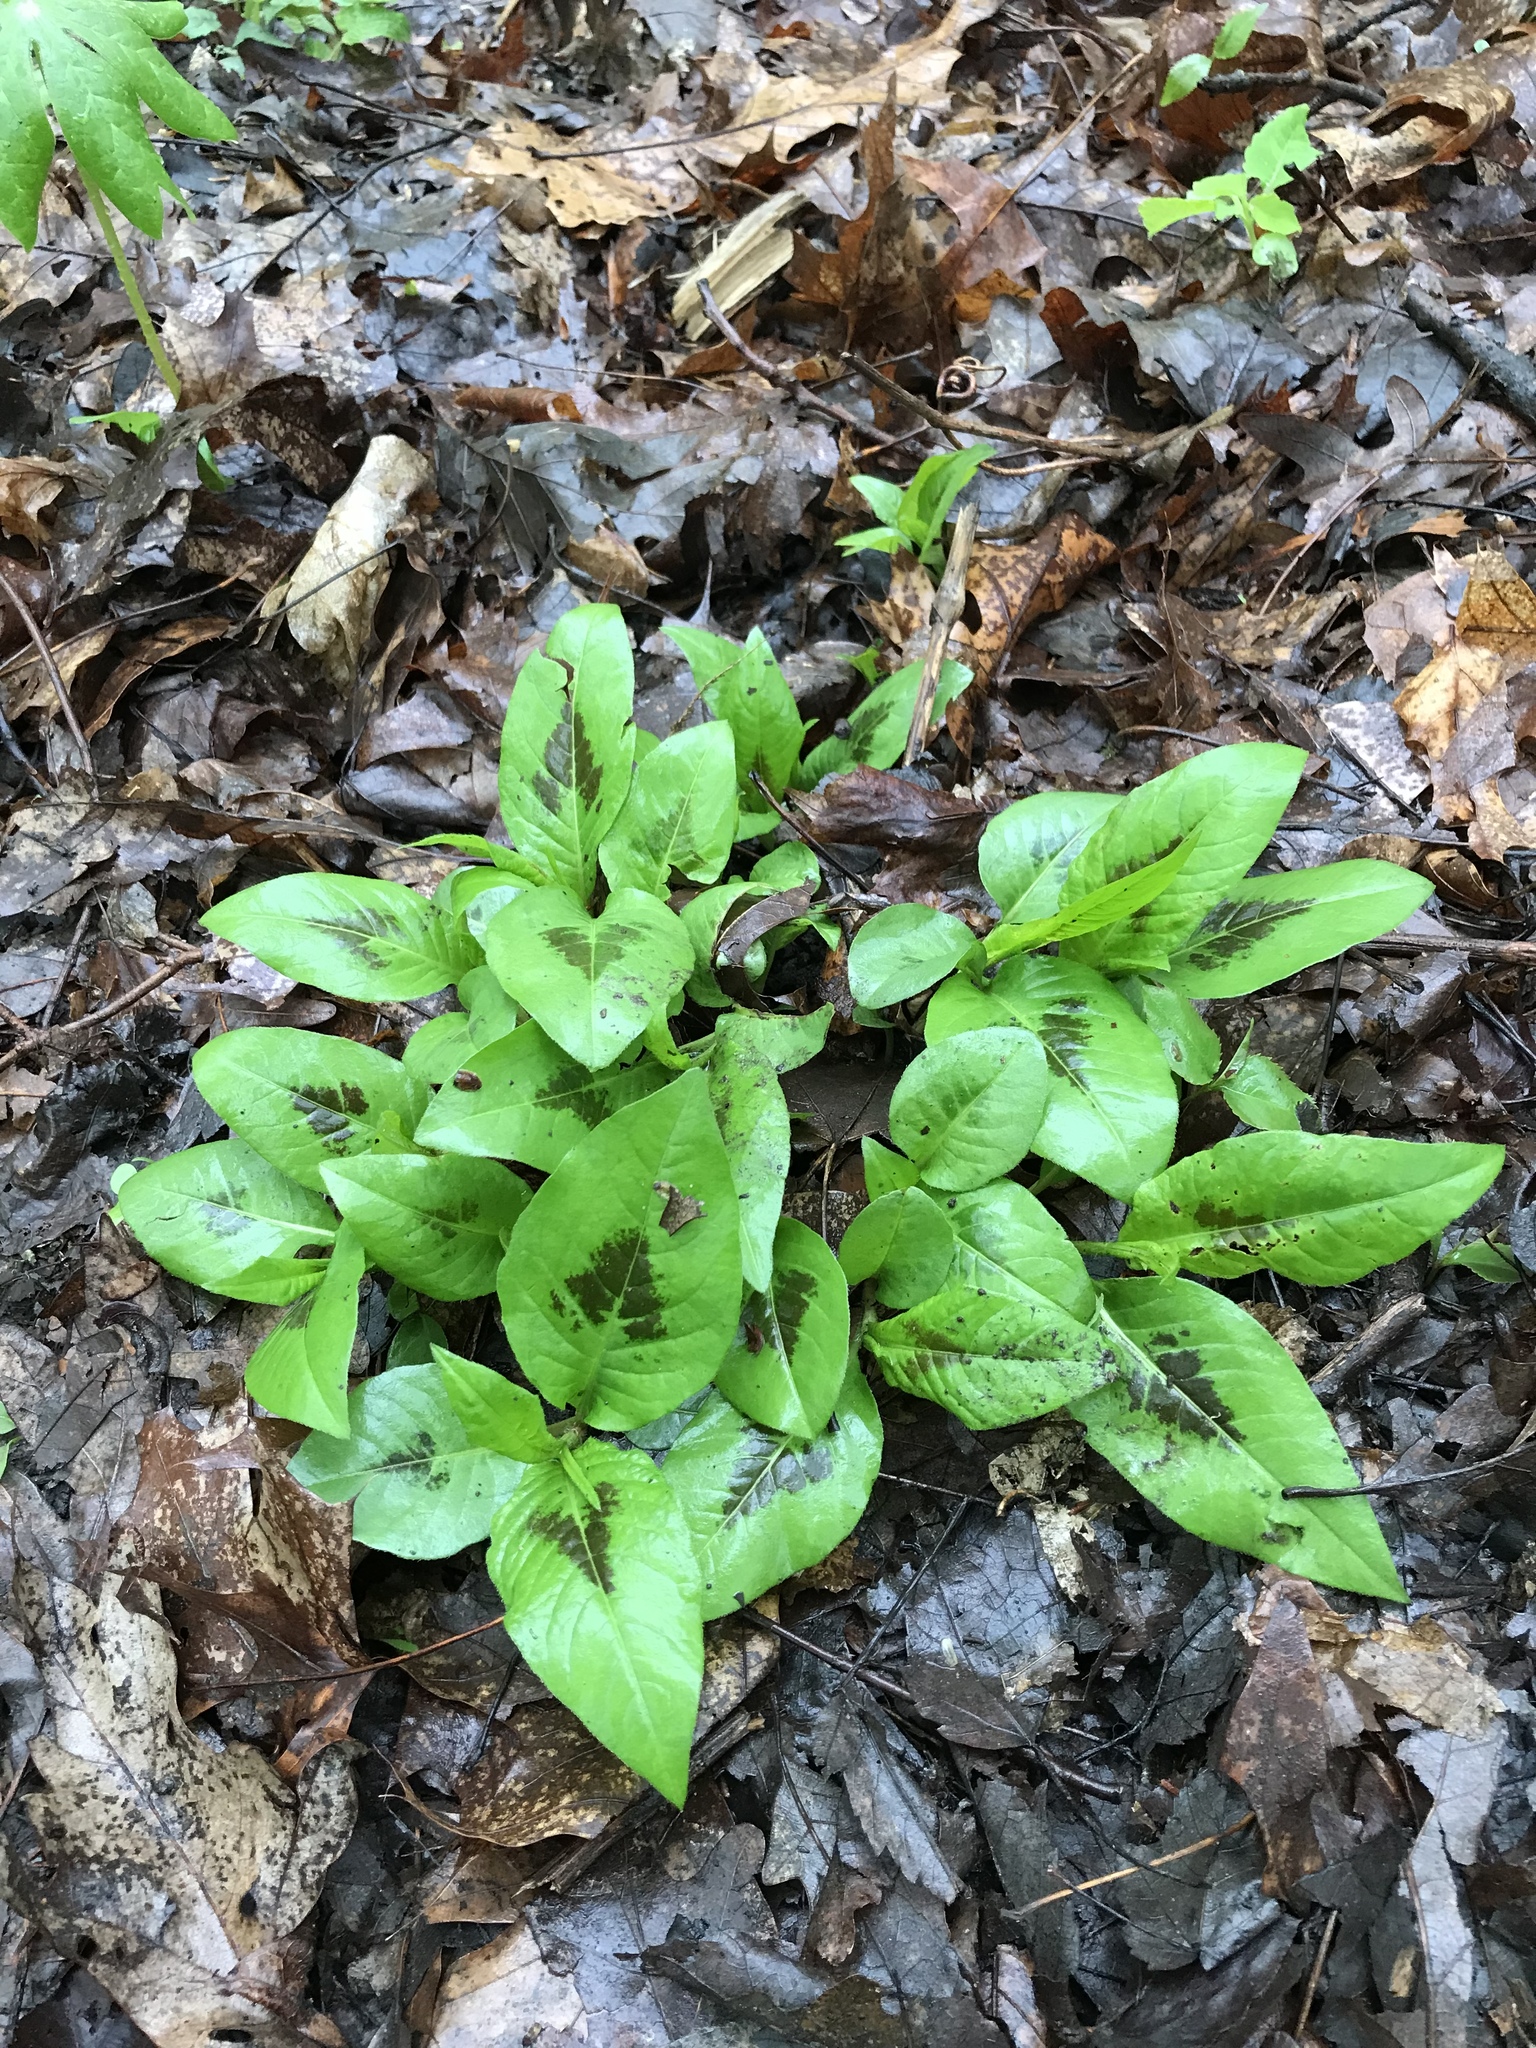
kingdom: Plantae
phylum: Tracheophyta
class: Magnoliopsida
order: Caryophyllales
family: Polygonaceae
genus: Persicaria
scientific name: Persicaria virginiana
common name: Jumpseed
